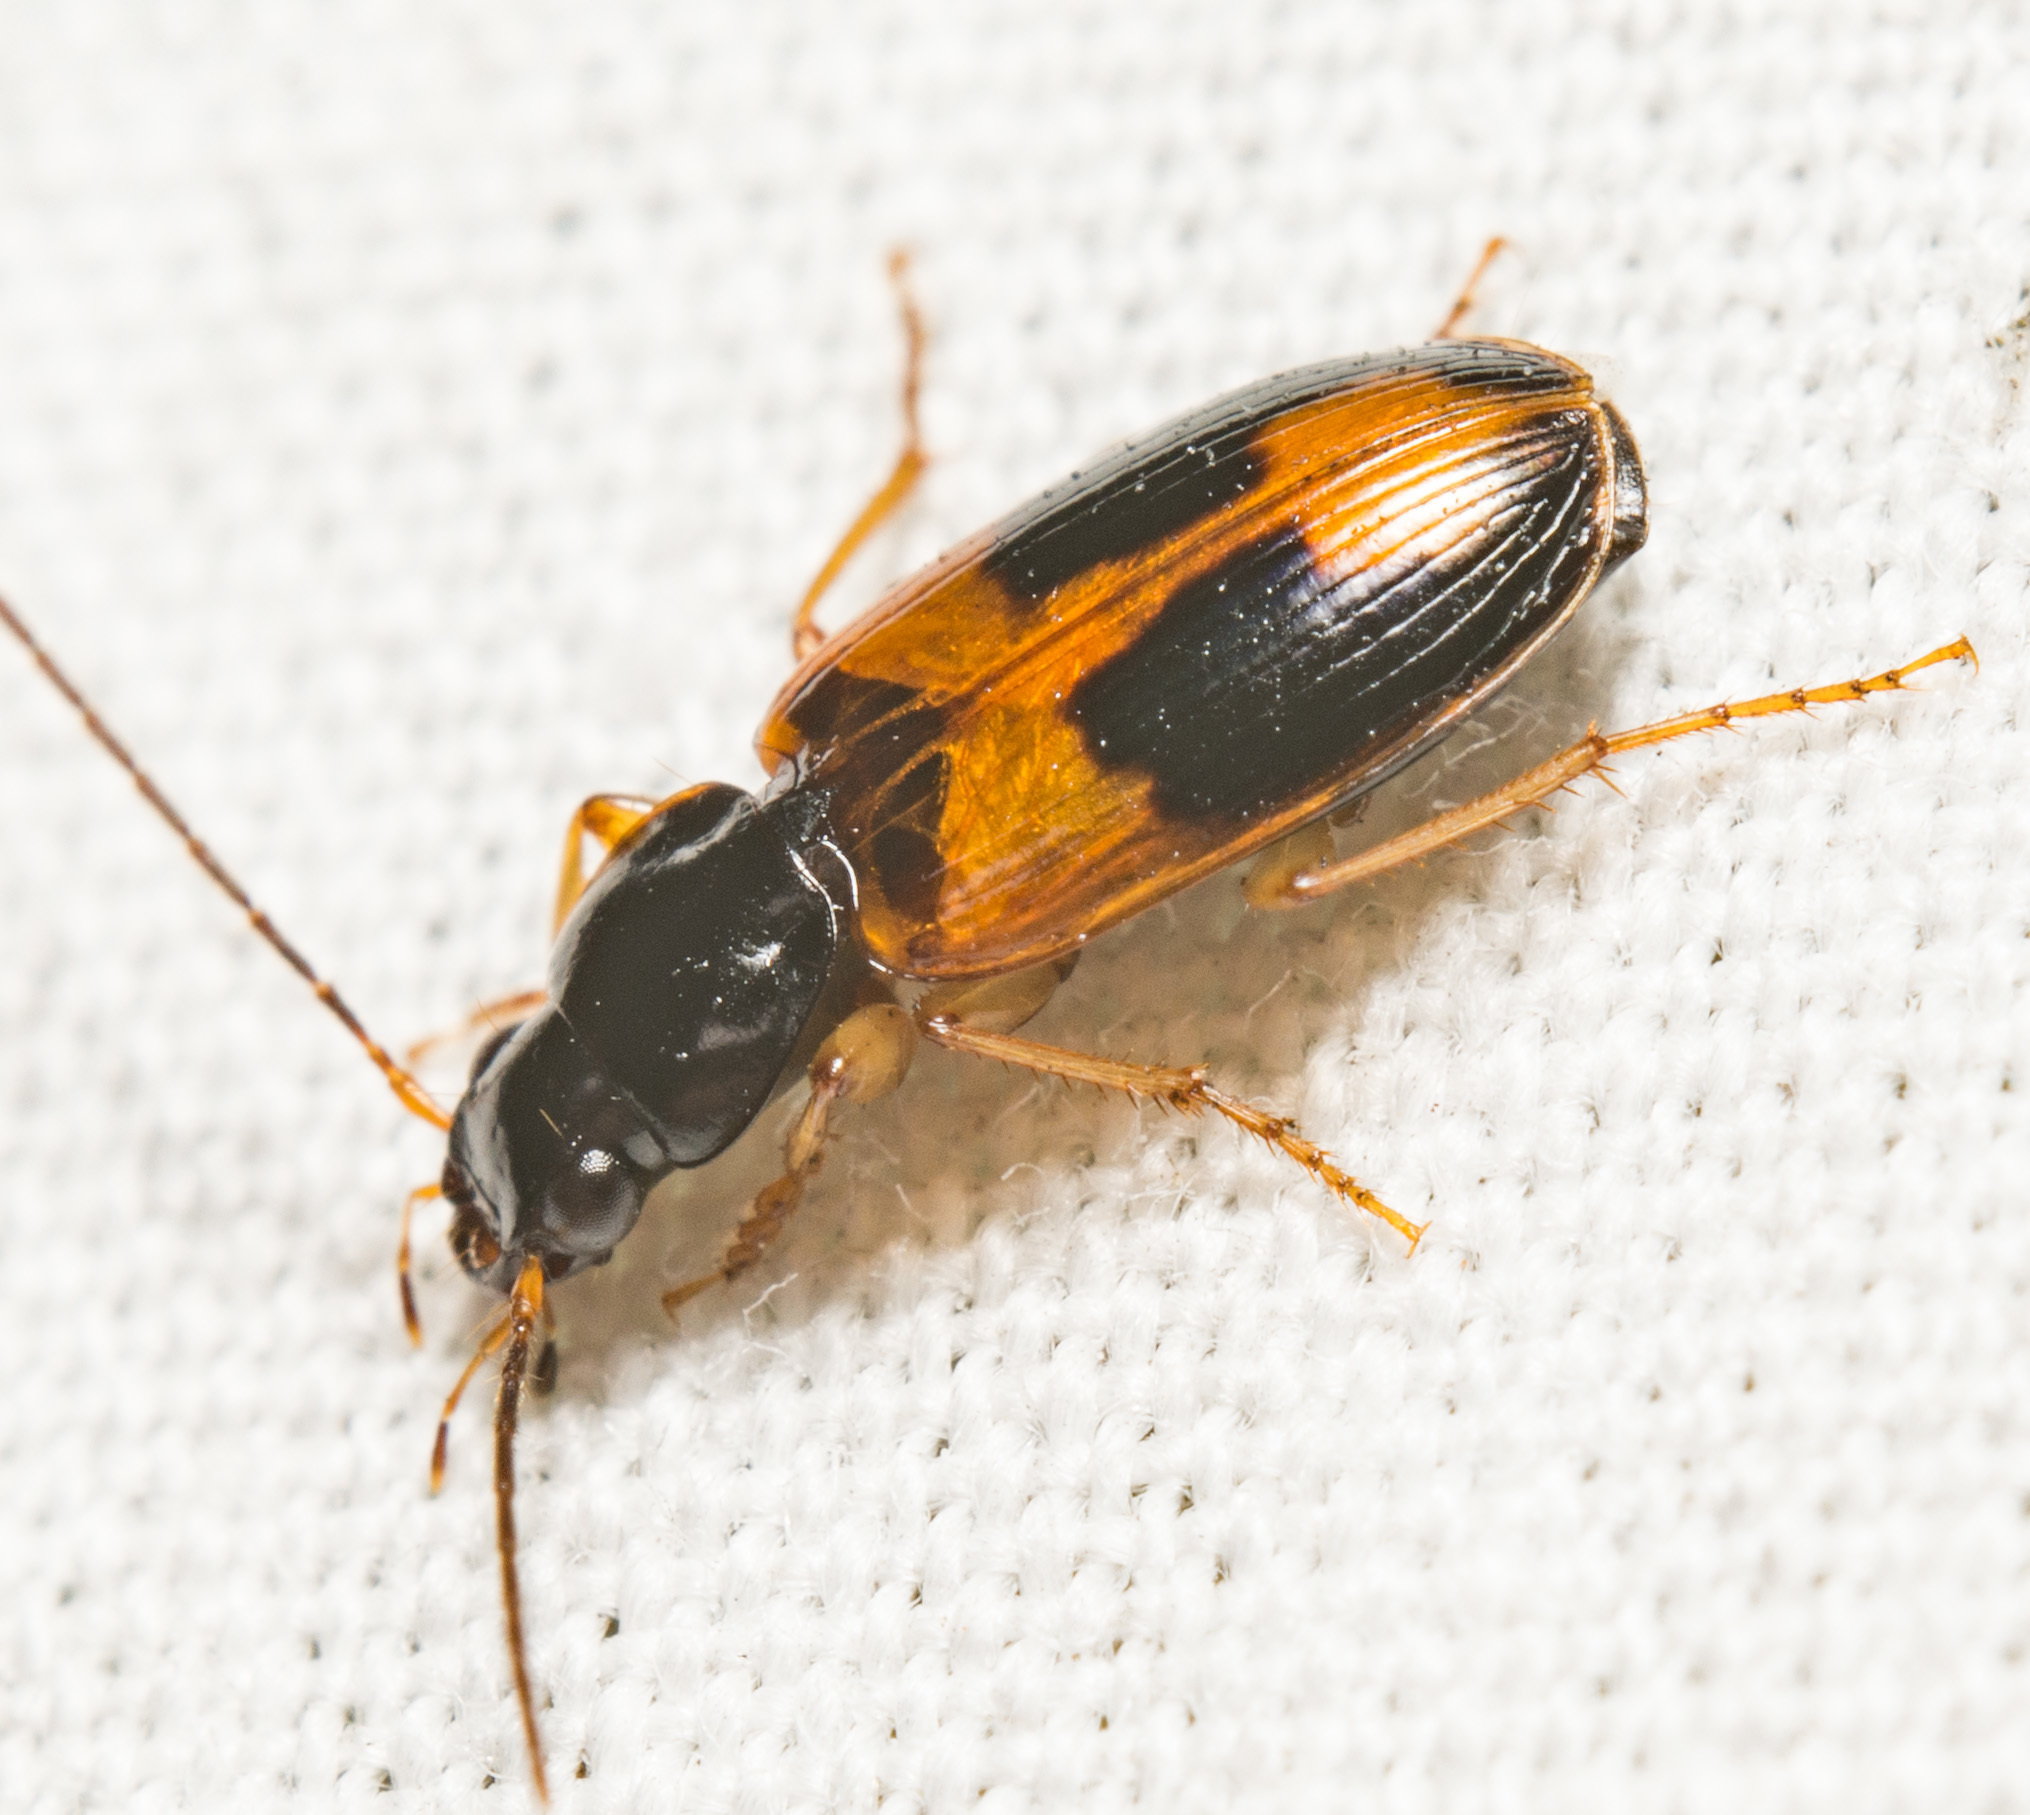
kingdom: Animalia
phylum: Arthropoda
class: Insecta
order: Coleoptera
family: Carabidae
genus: Badister
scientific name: Badister elegans
